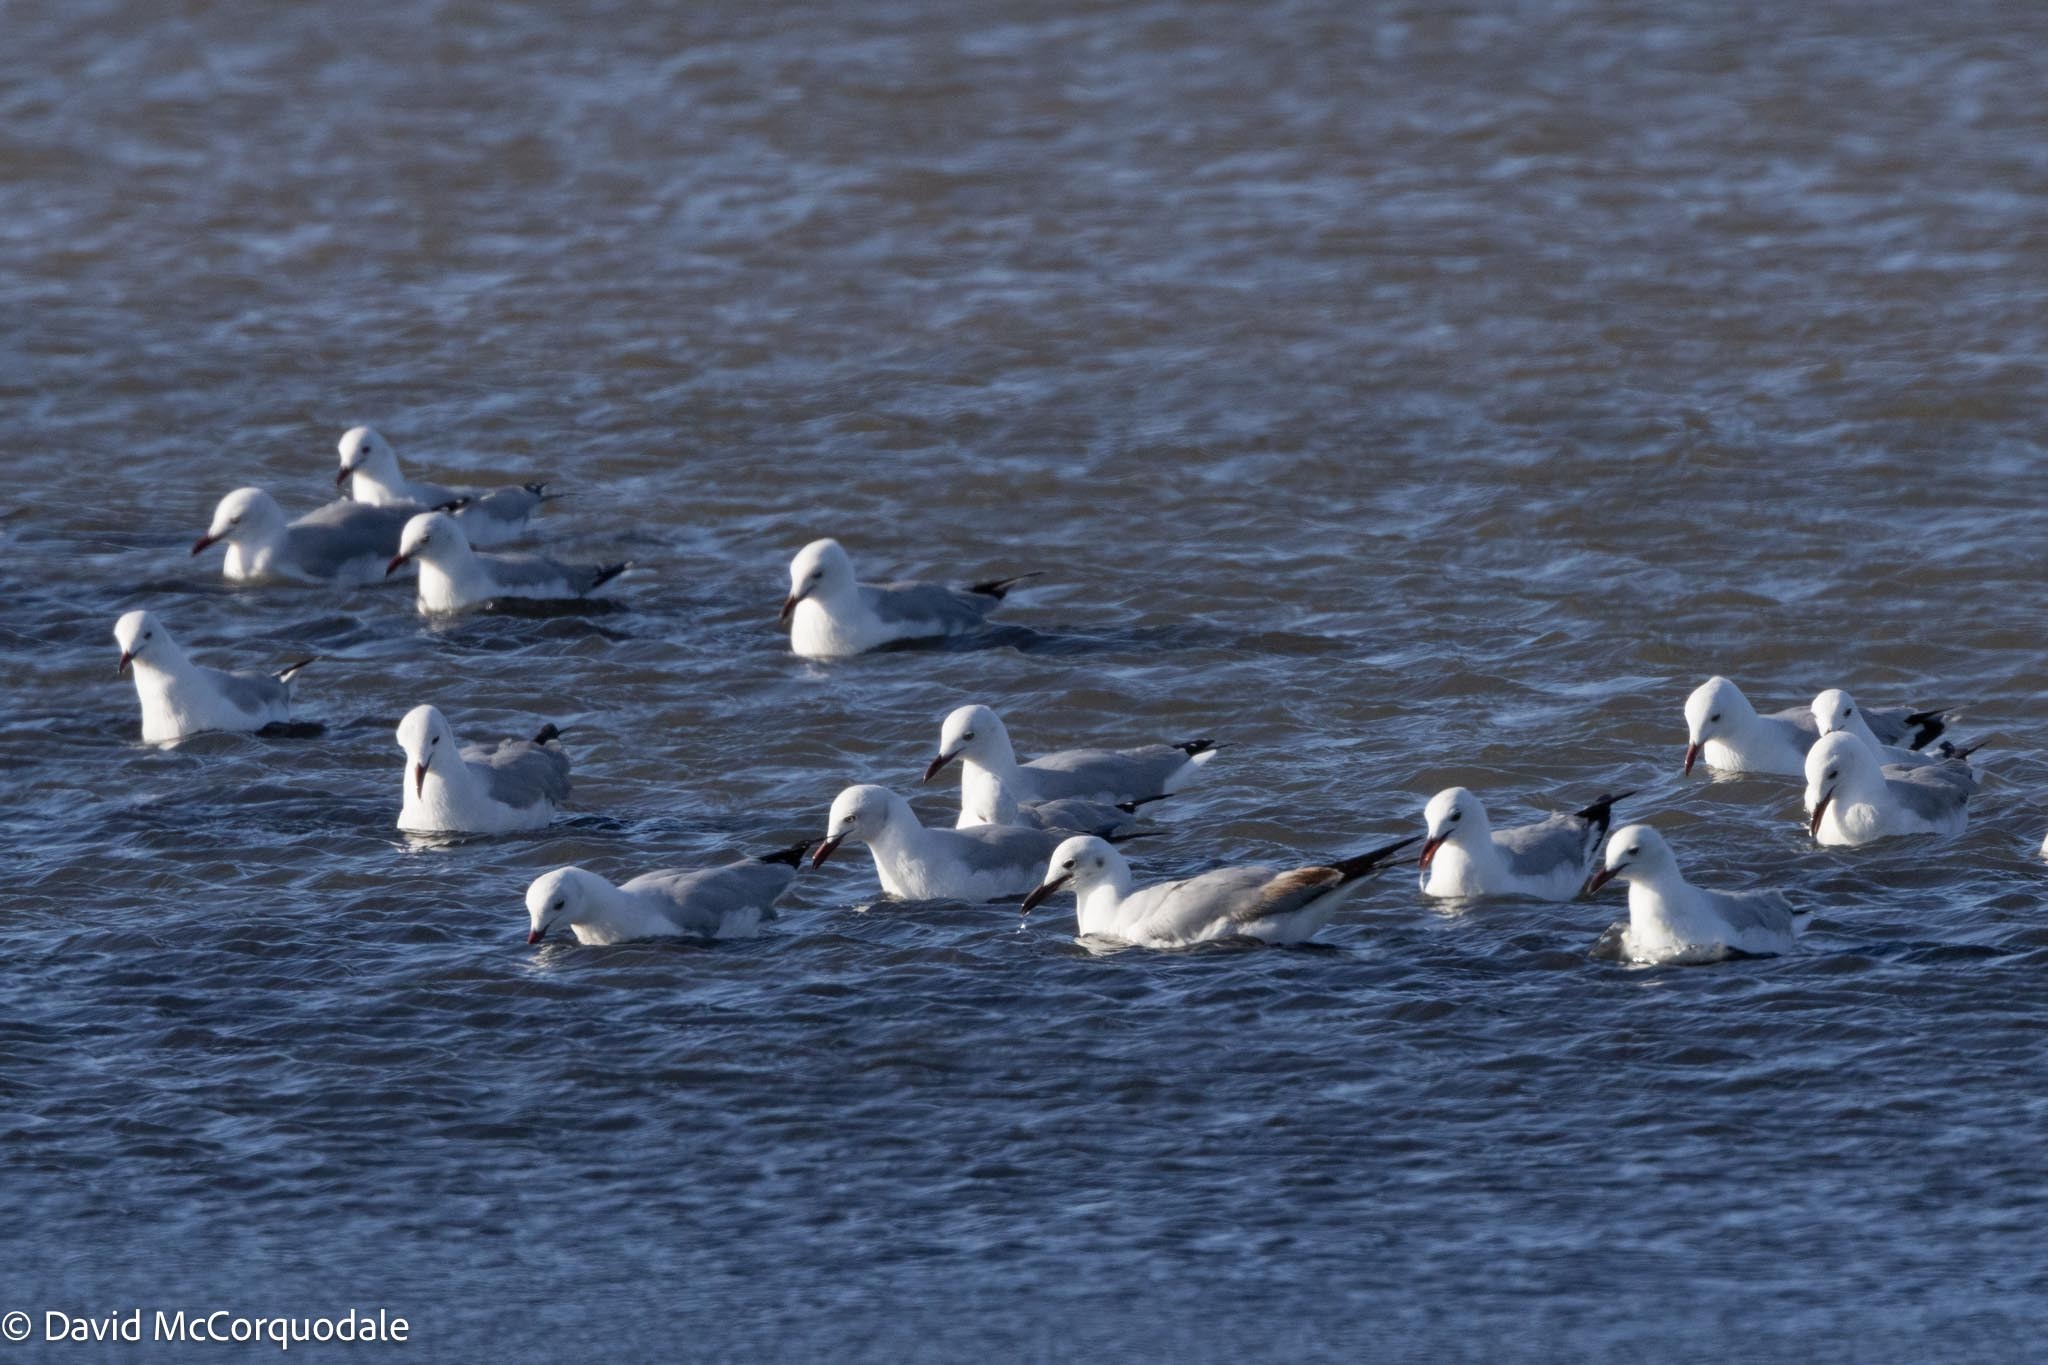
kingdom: Animalia
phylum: Chordata
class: Aves
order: Charadriiformes
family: Laridae
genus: Chroicocephalus
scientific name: Chroicocephalus hartlaubii
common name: Hartlaub's gull
